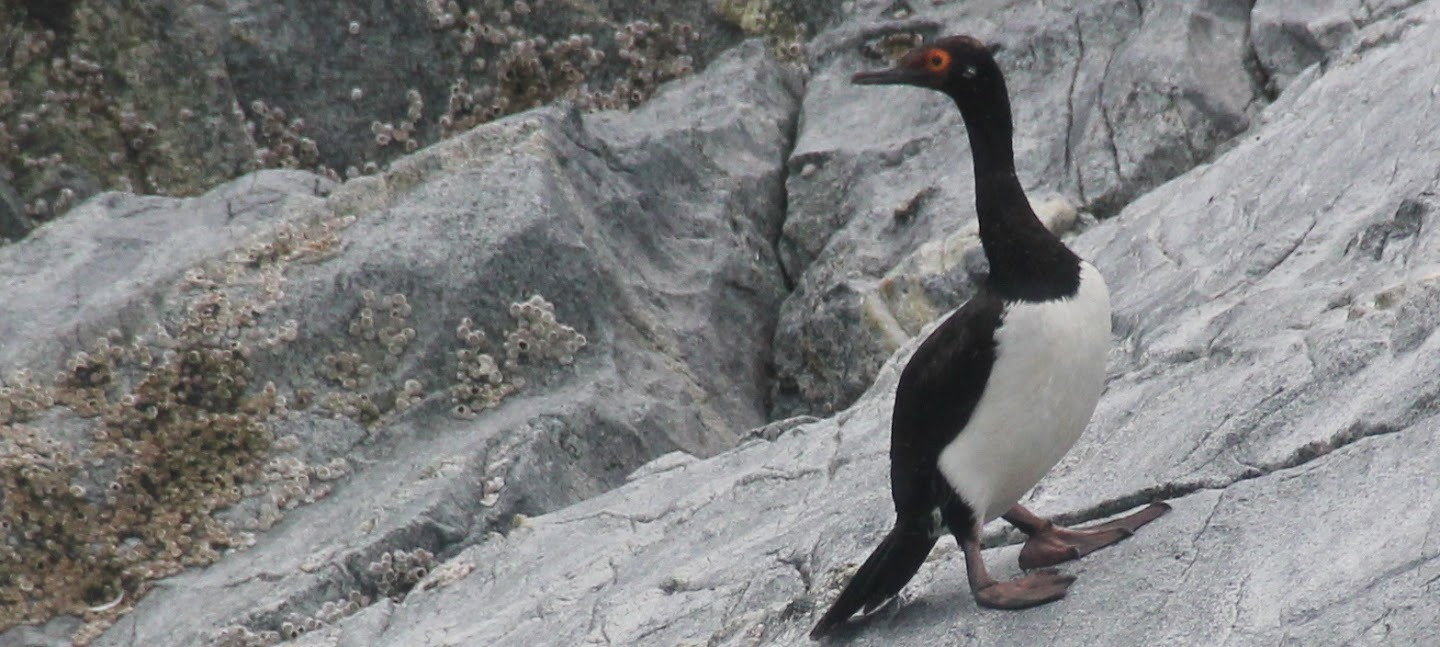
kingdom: Animalia
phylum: Chordata
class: Aves
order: Suliformes
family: Phalacrocoracidae
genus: Phalacrocorax
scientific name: Phalacrocorax magellanicus
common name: Rock shag
